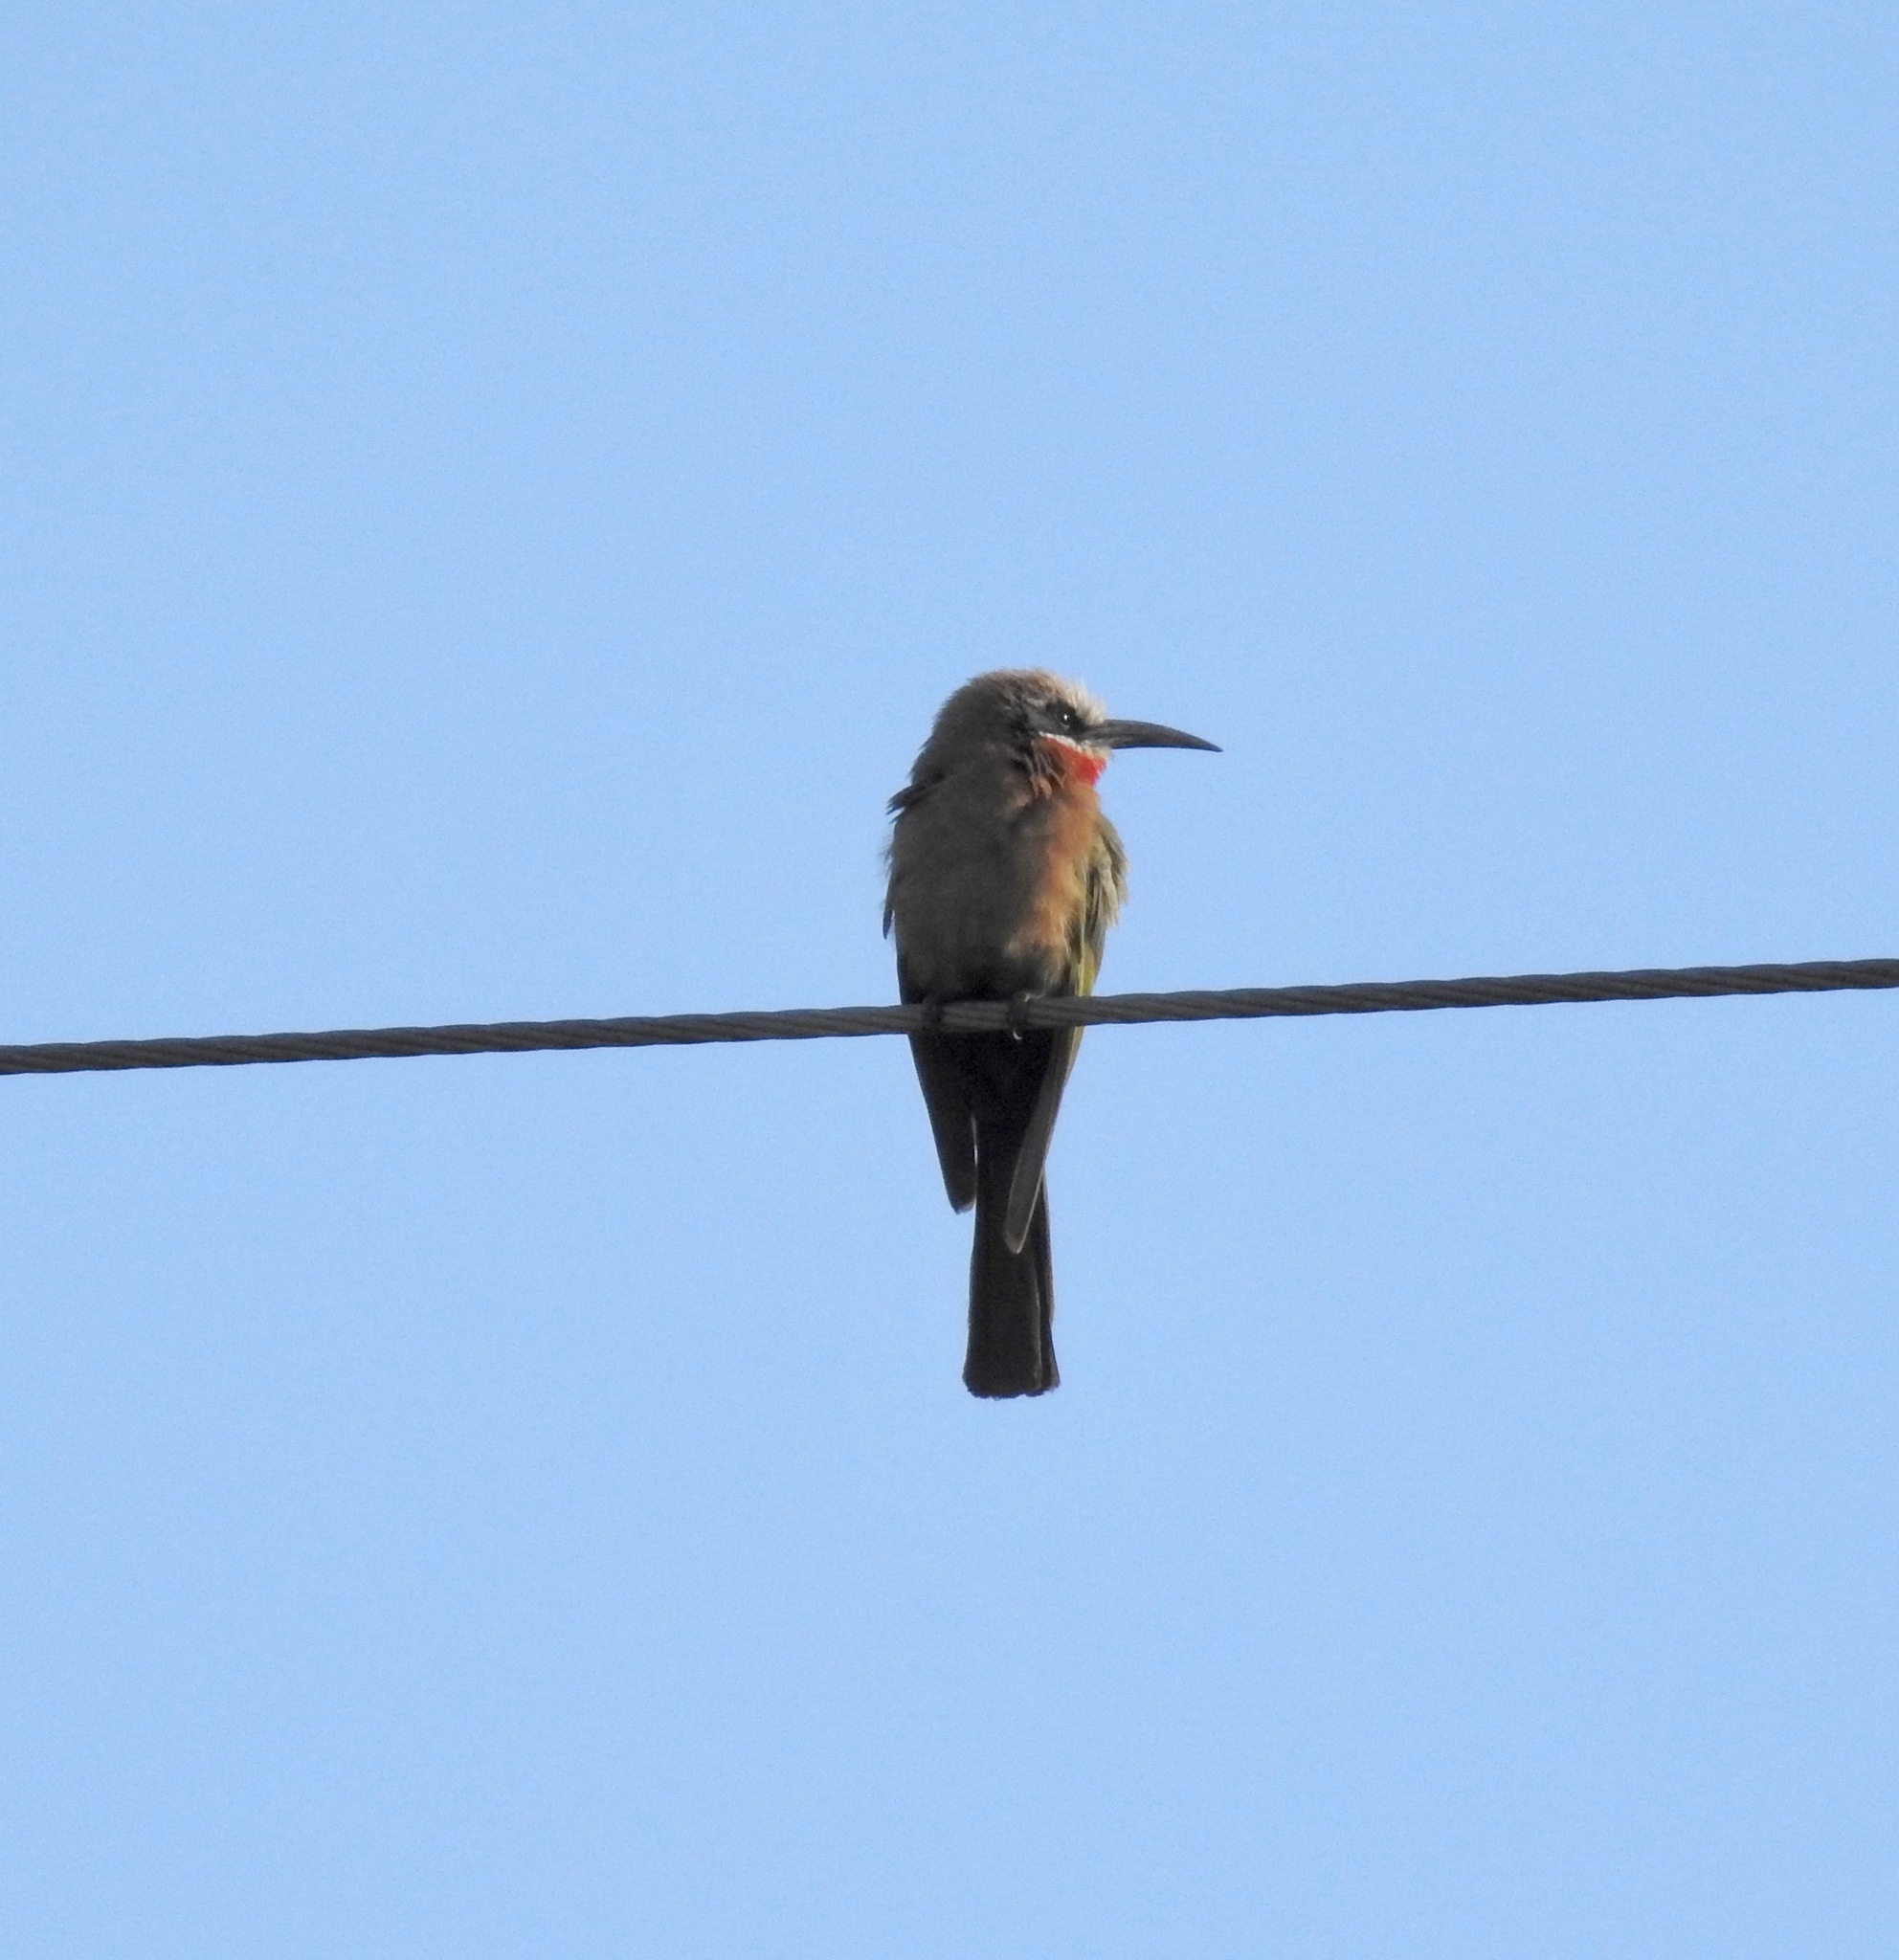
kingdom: Animalia
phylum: Chordata
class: Aves
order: Coraciiformes
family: Meropidae
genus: Merops
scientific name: Merops bullockoides
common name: White-fronted bee-eater
